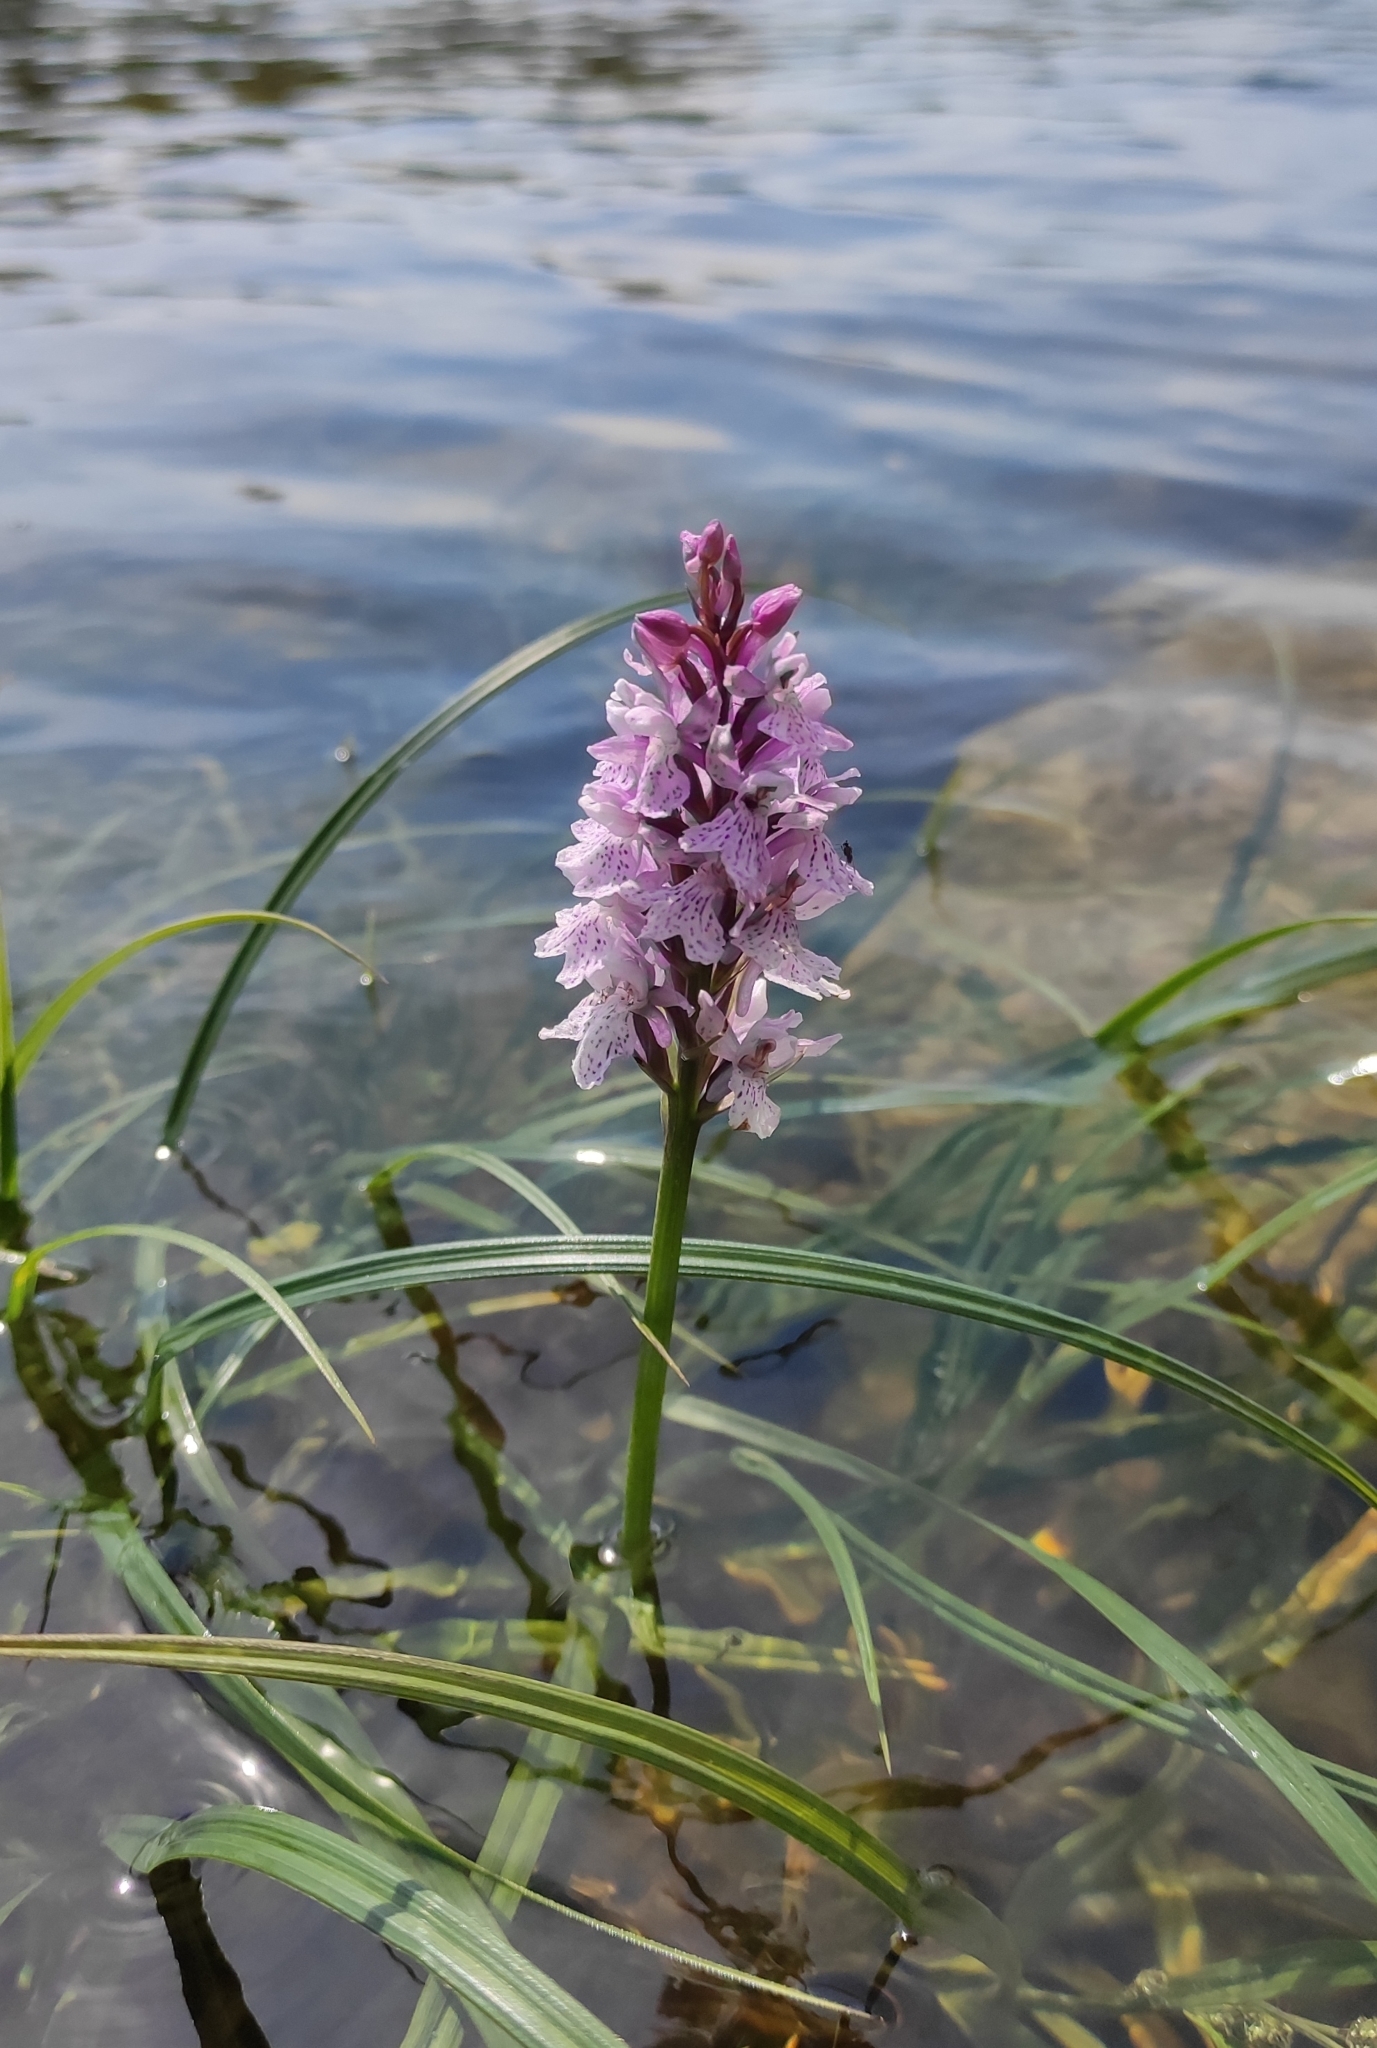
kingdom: Plantae
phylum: Tracheophyta
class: Liliopsida
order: Asparagales
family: Orchidaceae
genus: Dactylorhiza
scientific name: Dactylorhiza maculata
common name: Heath spotted-orchid
